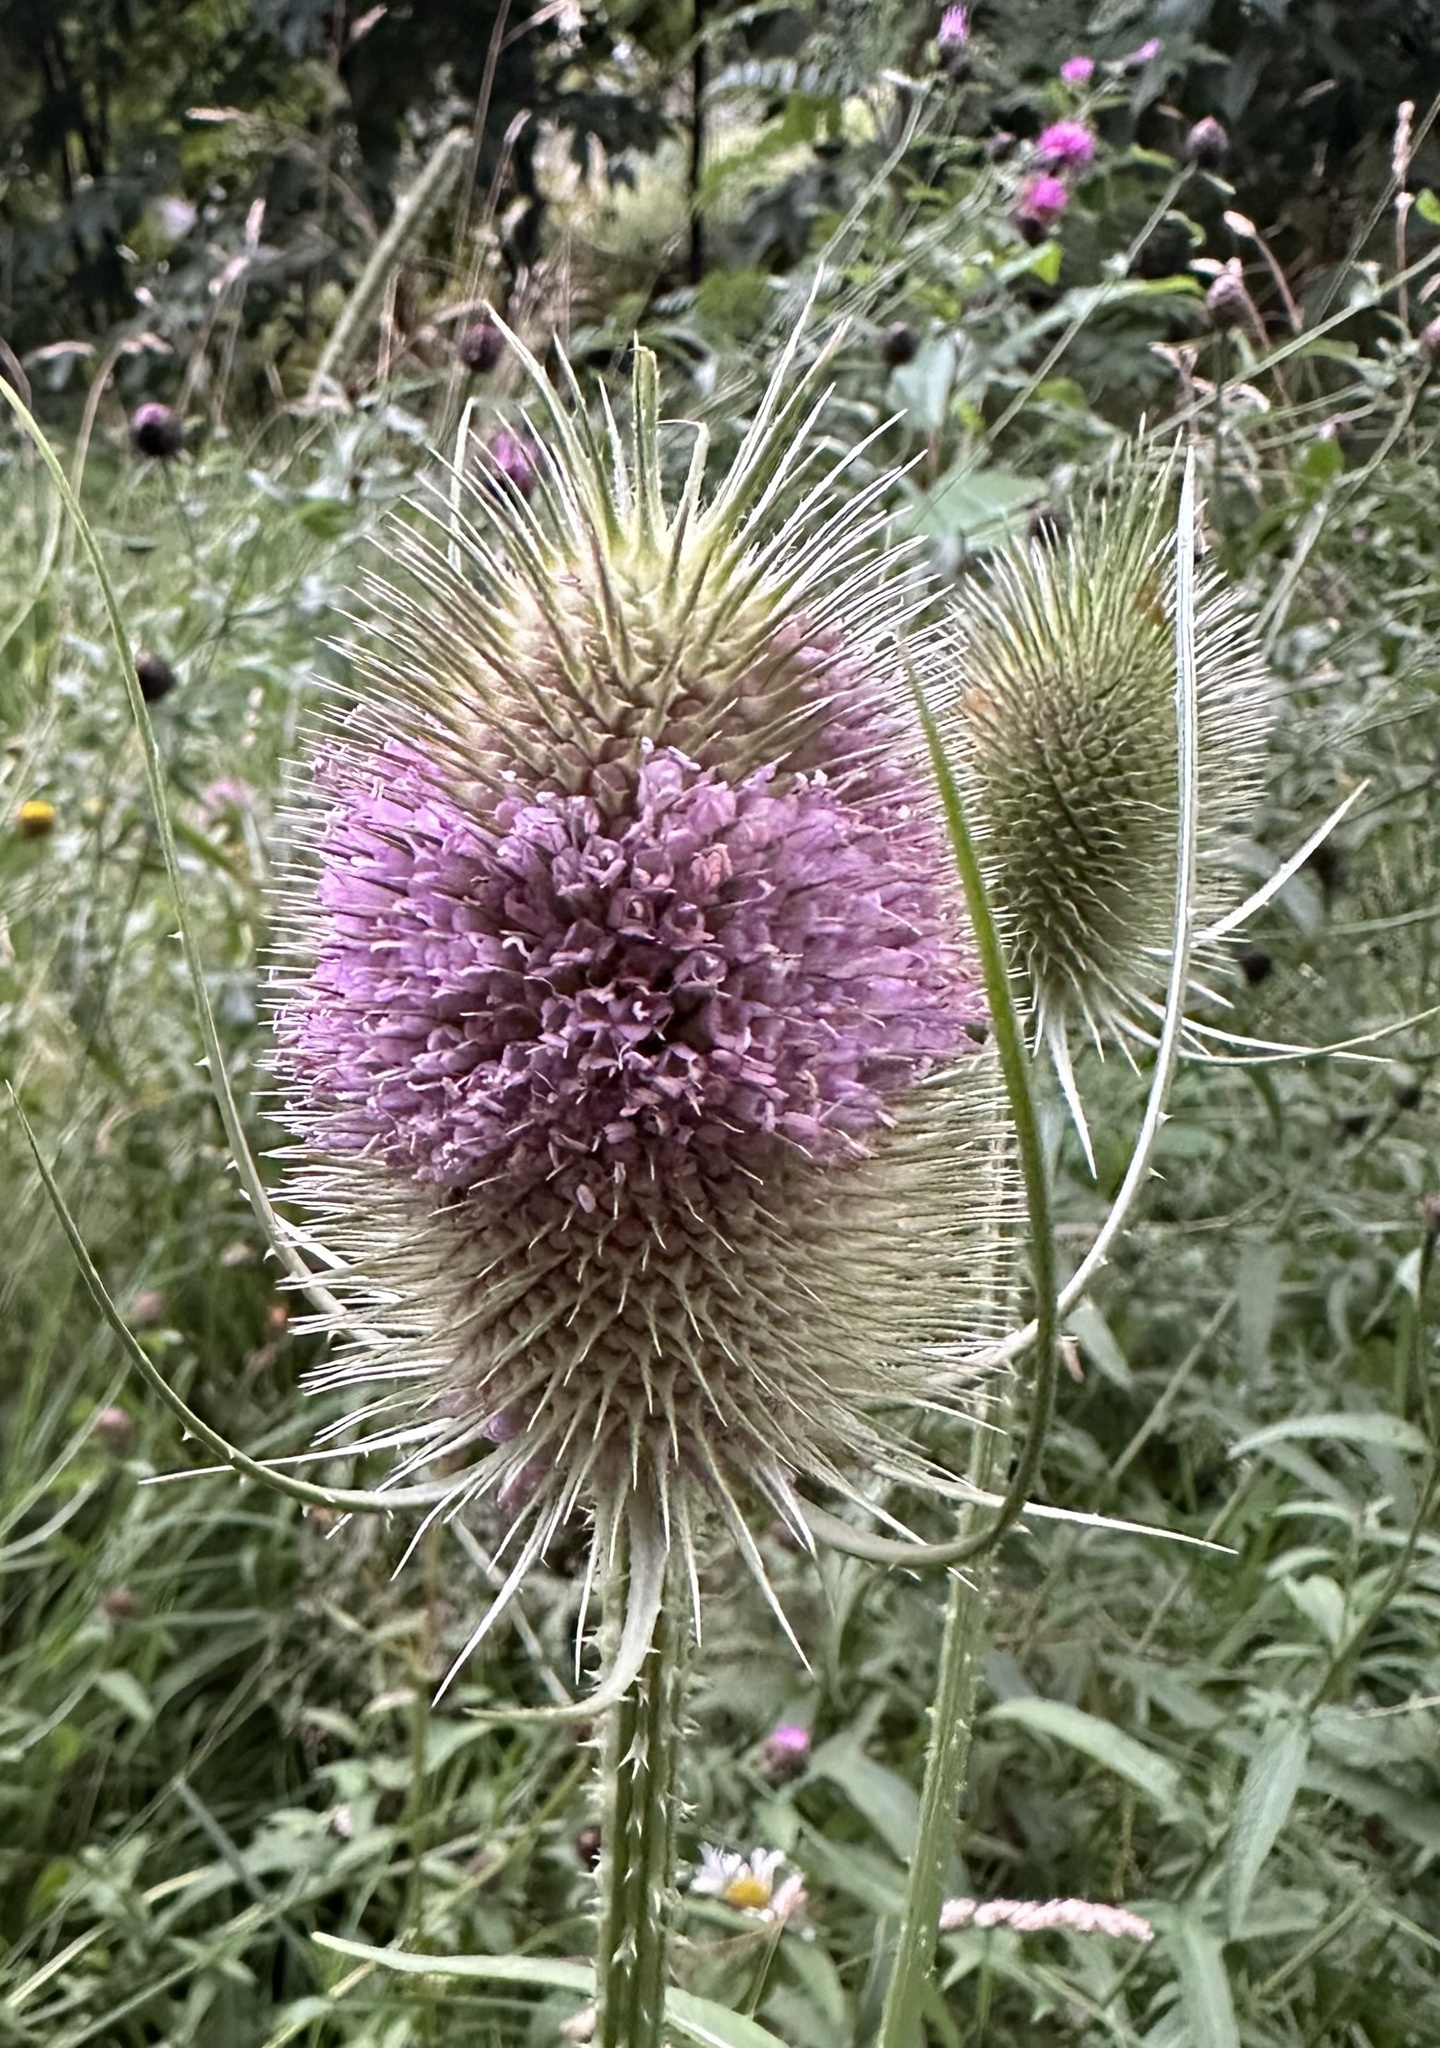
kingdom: Plantae
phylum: Tracheophyta
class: Magnoliopsida
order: Dipsacales
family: Caprifoliaceae
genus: Dipsacus
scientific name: Dipsacus fullonum
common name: Teasel
